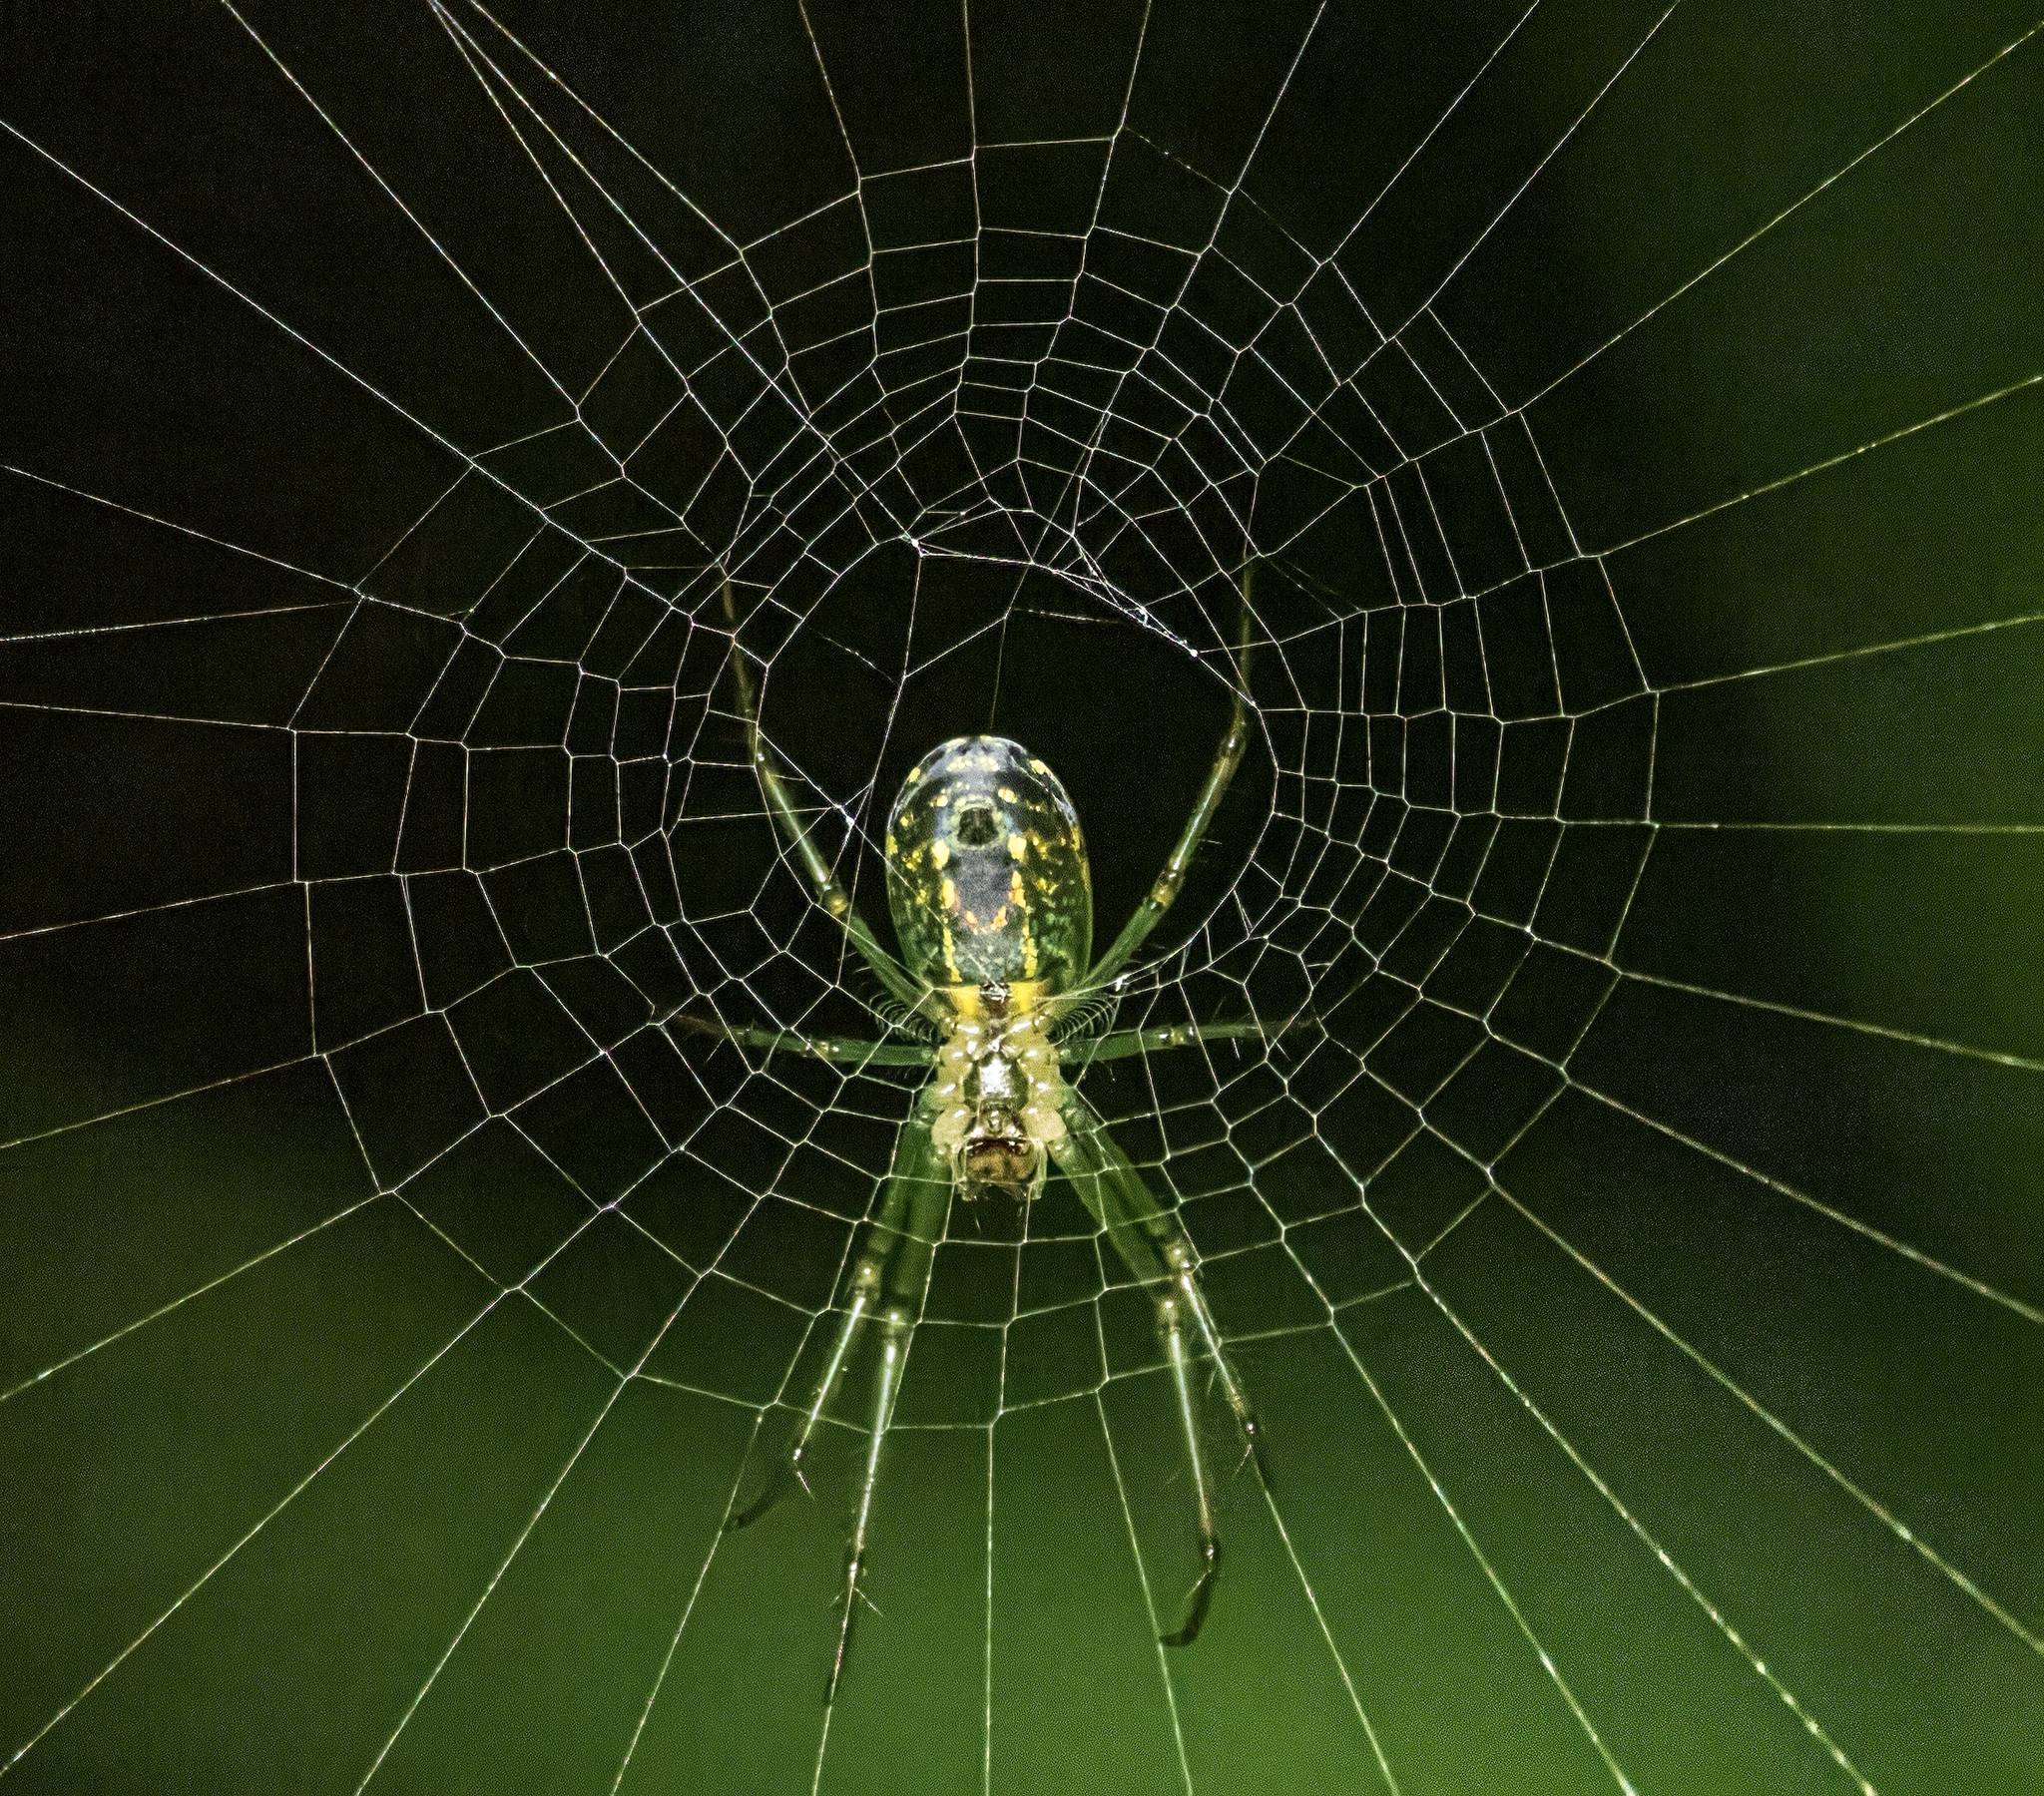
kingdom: Animalia
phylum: Arthropoda
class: Arachnida
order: Araneae
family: Tetragnathidae
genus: Leucauge
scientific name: Leucauge venusta
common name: Longjawed orb weavers
